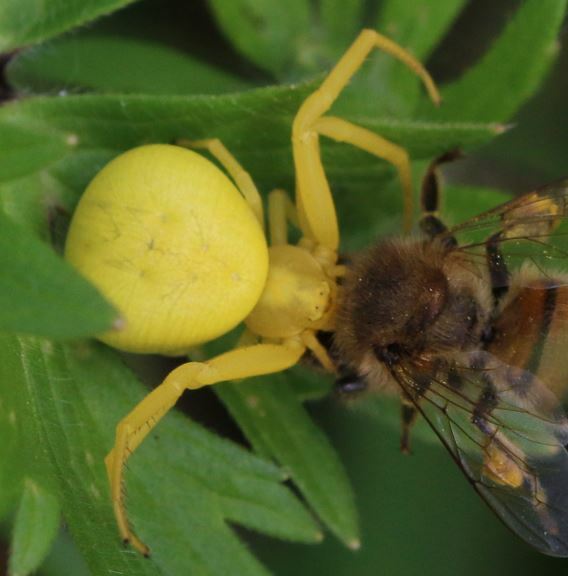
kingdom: Animalia
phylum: Arthropoda
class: Arachnida
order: Araneae
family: Thomisidae
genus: Misumena
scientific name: Misumena vatia
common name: Goldenrod crab spider
